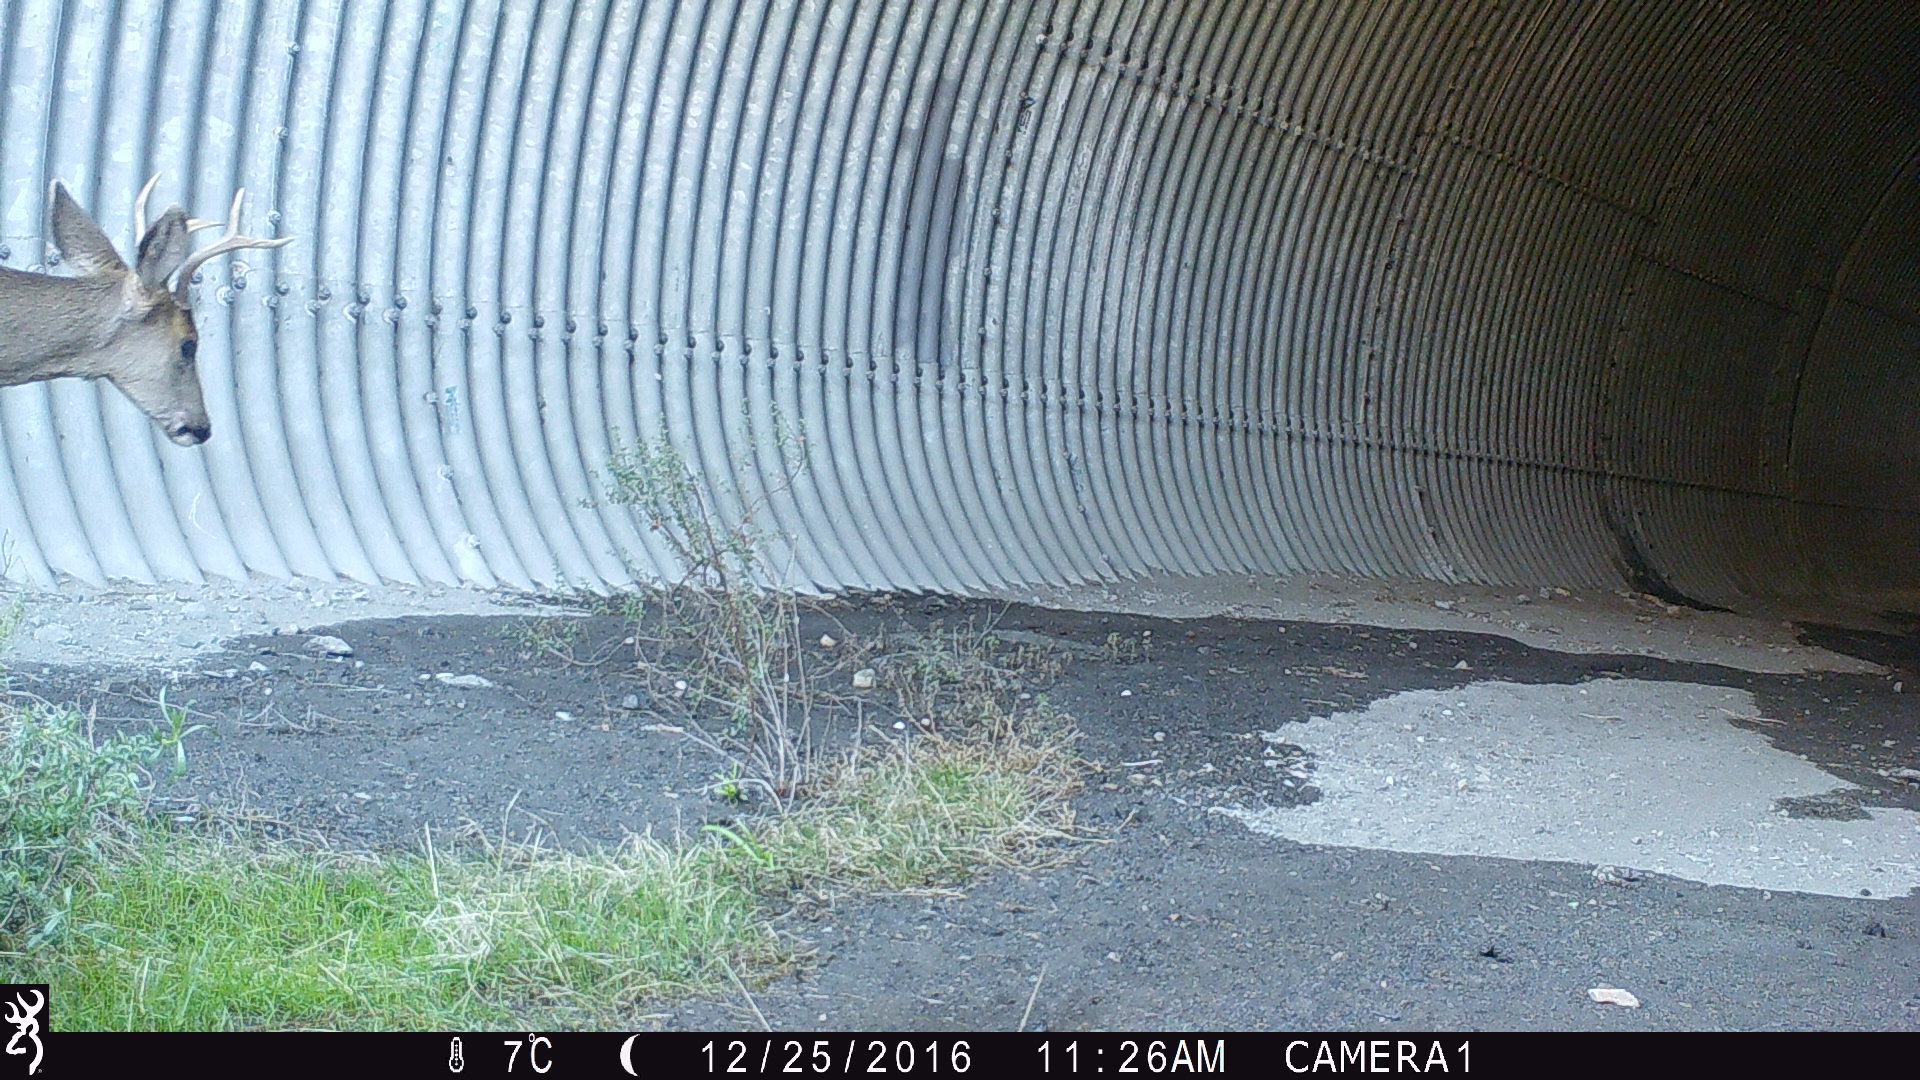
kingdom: Animalia
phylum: Chordata
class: Mammalia
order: Artiodactyla
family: Cervidae
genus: Odocoileus
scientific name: Odocoileus hemionus
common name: Mule deer
